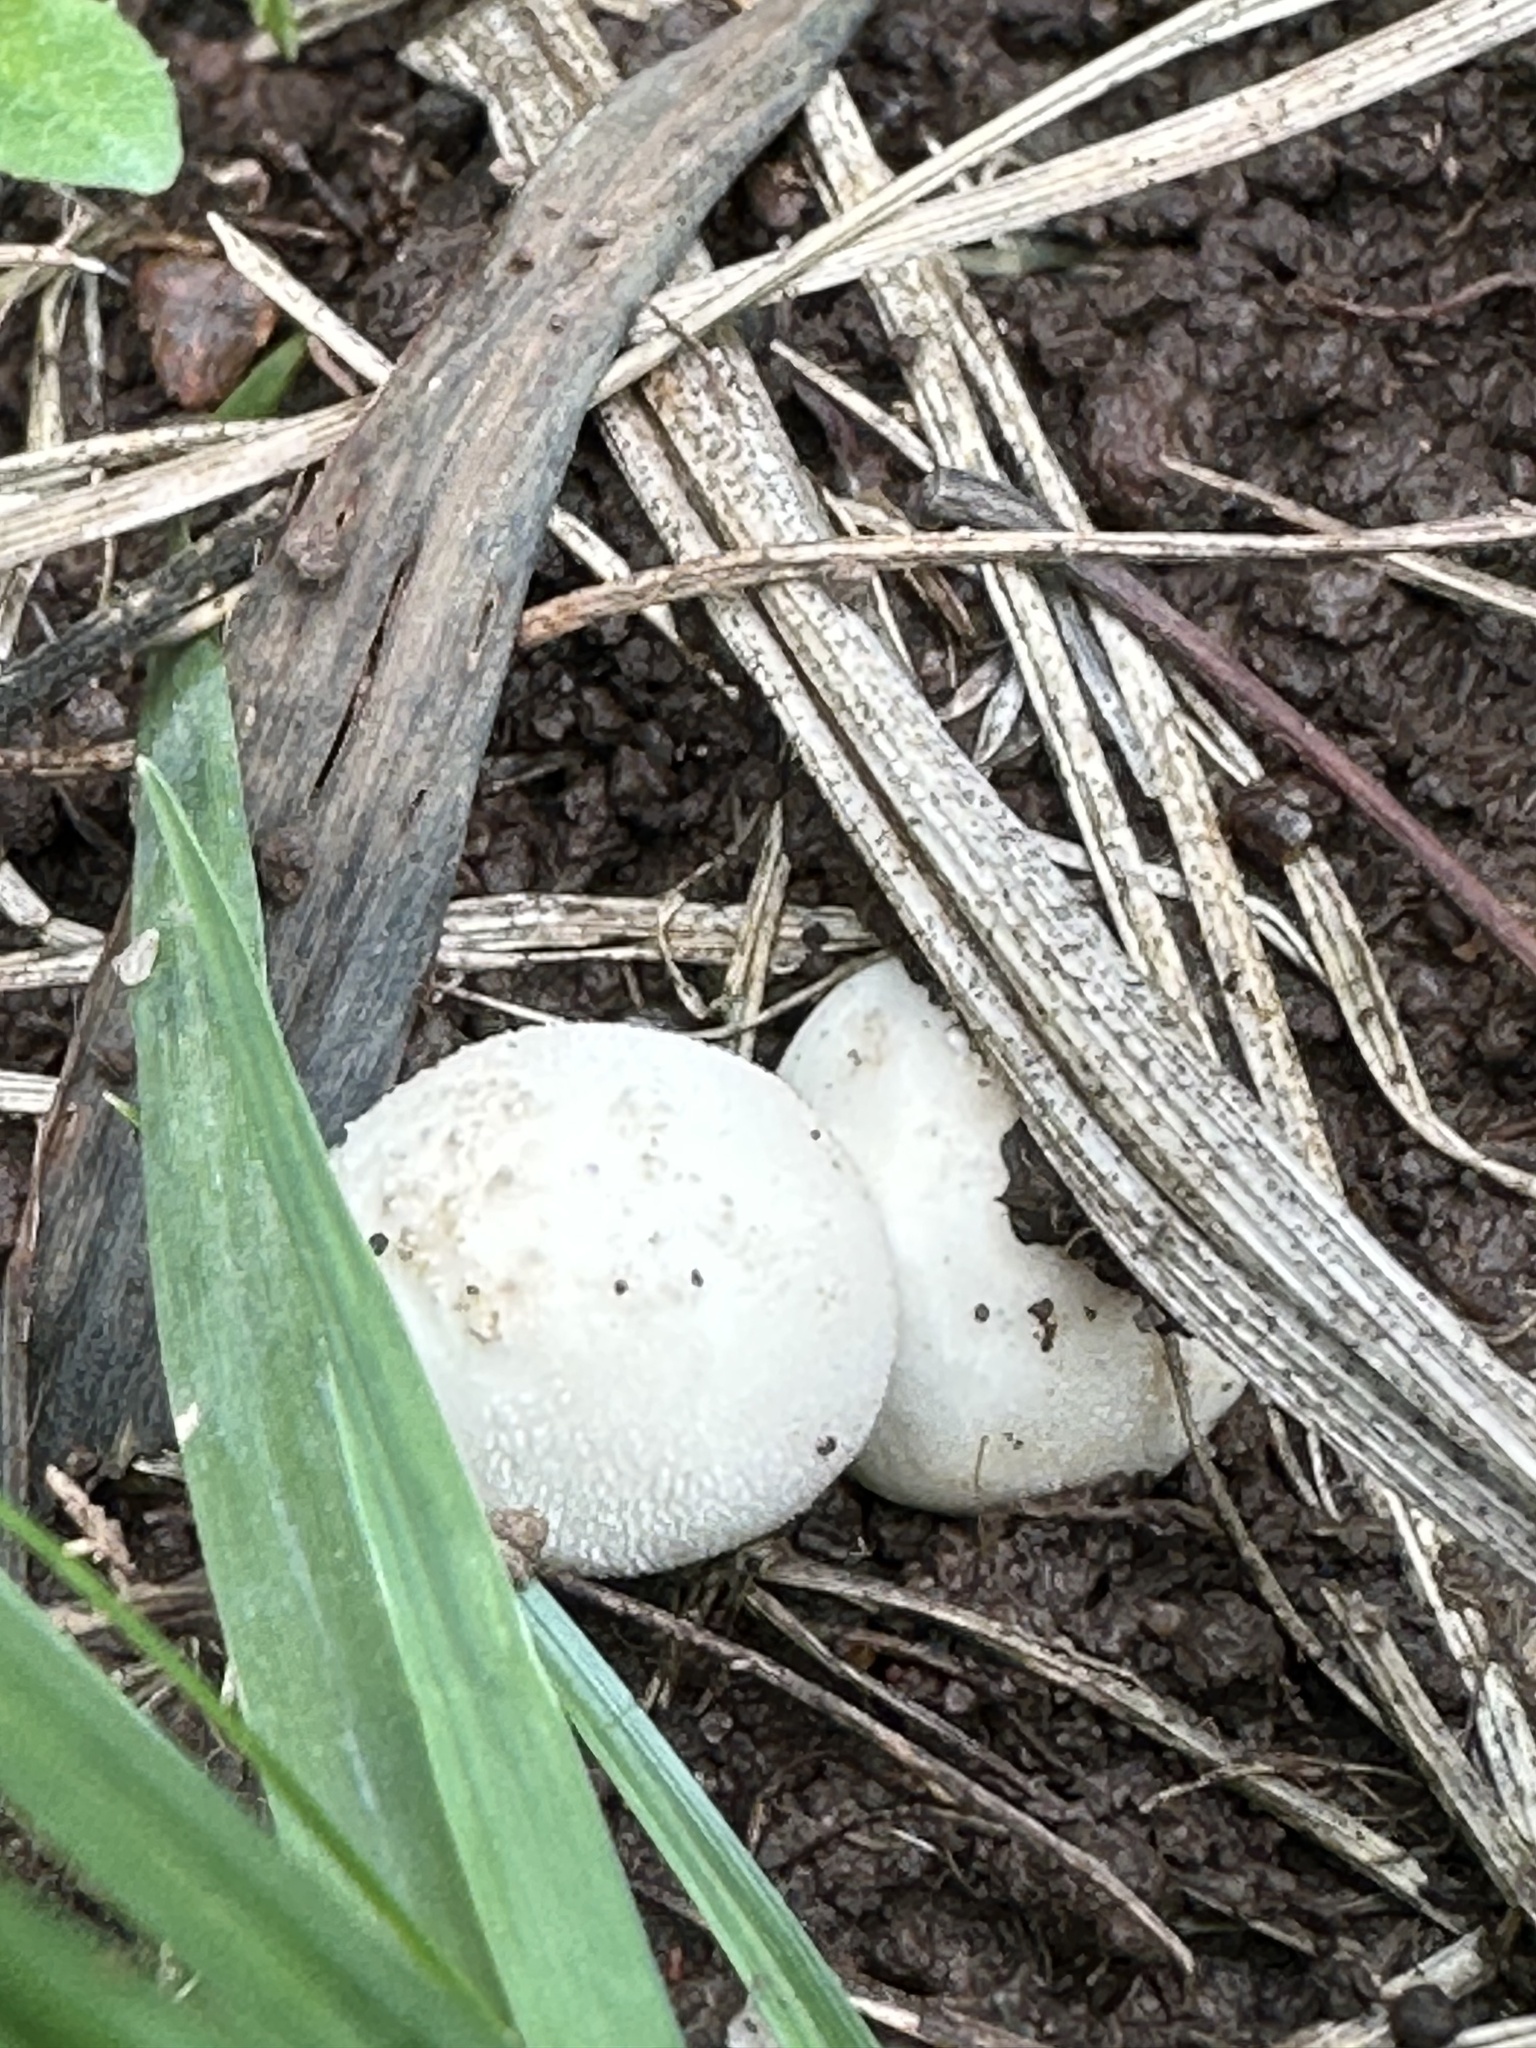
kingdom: Fungi
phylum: Basidiomycota
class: Agaricomycetes
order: Agaricales
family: Lycoperdaceae
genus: Lycoperdon
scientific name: Lycoperdon perlatum
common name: Common puffball
